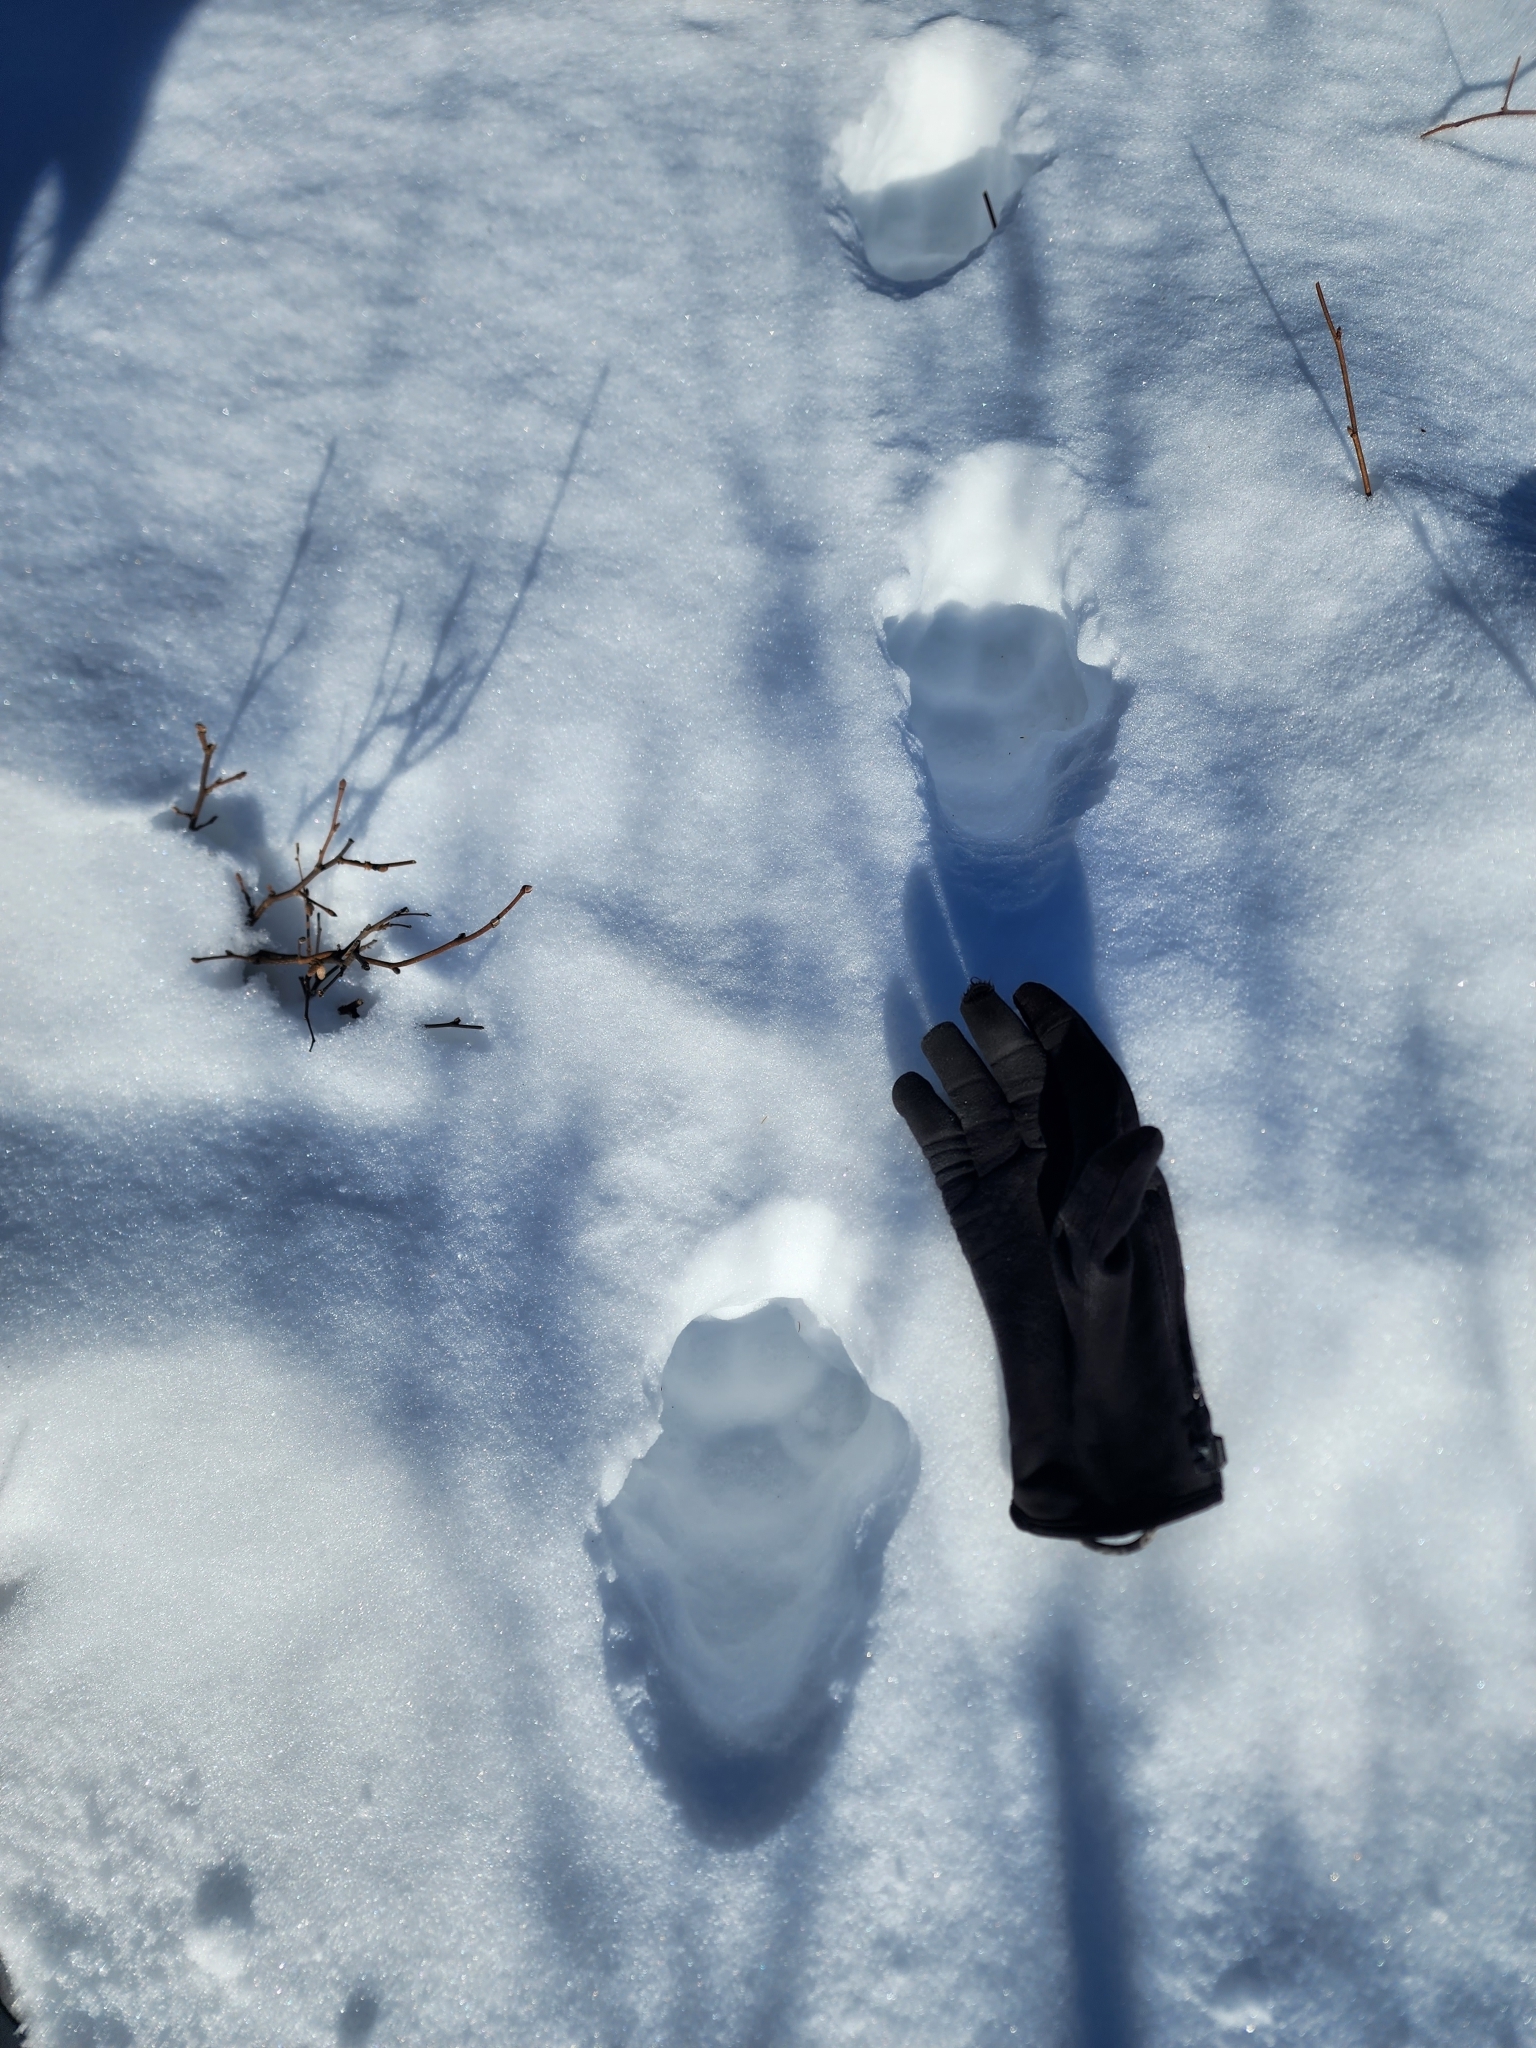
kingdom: Animalia
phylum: Chordata
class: Mammalia
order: Carnivora
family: Felidae
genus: Lynx
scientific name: Lynx canadensis
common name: Canadian lynx
